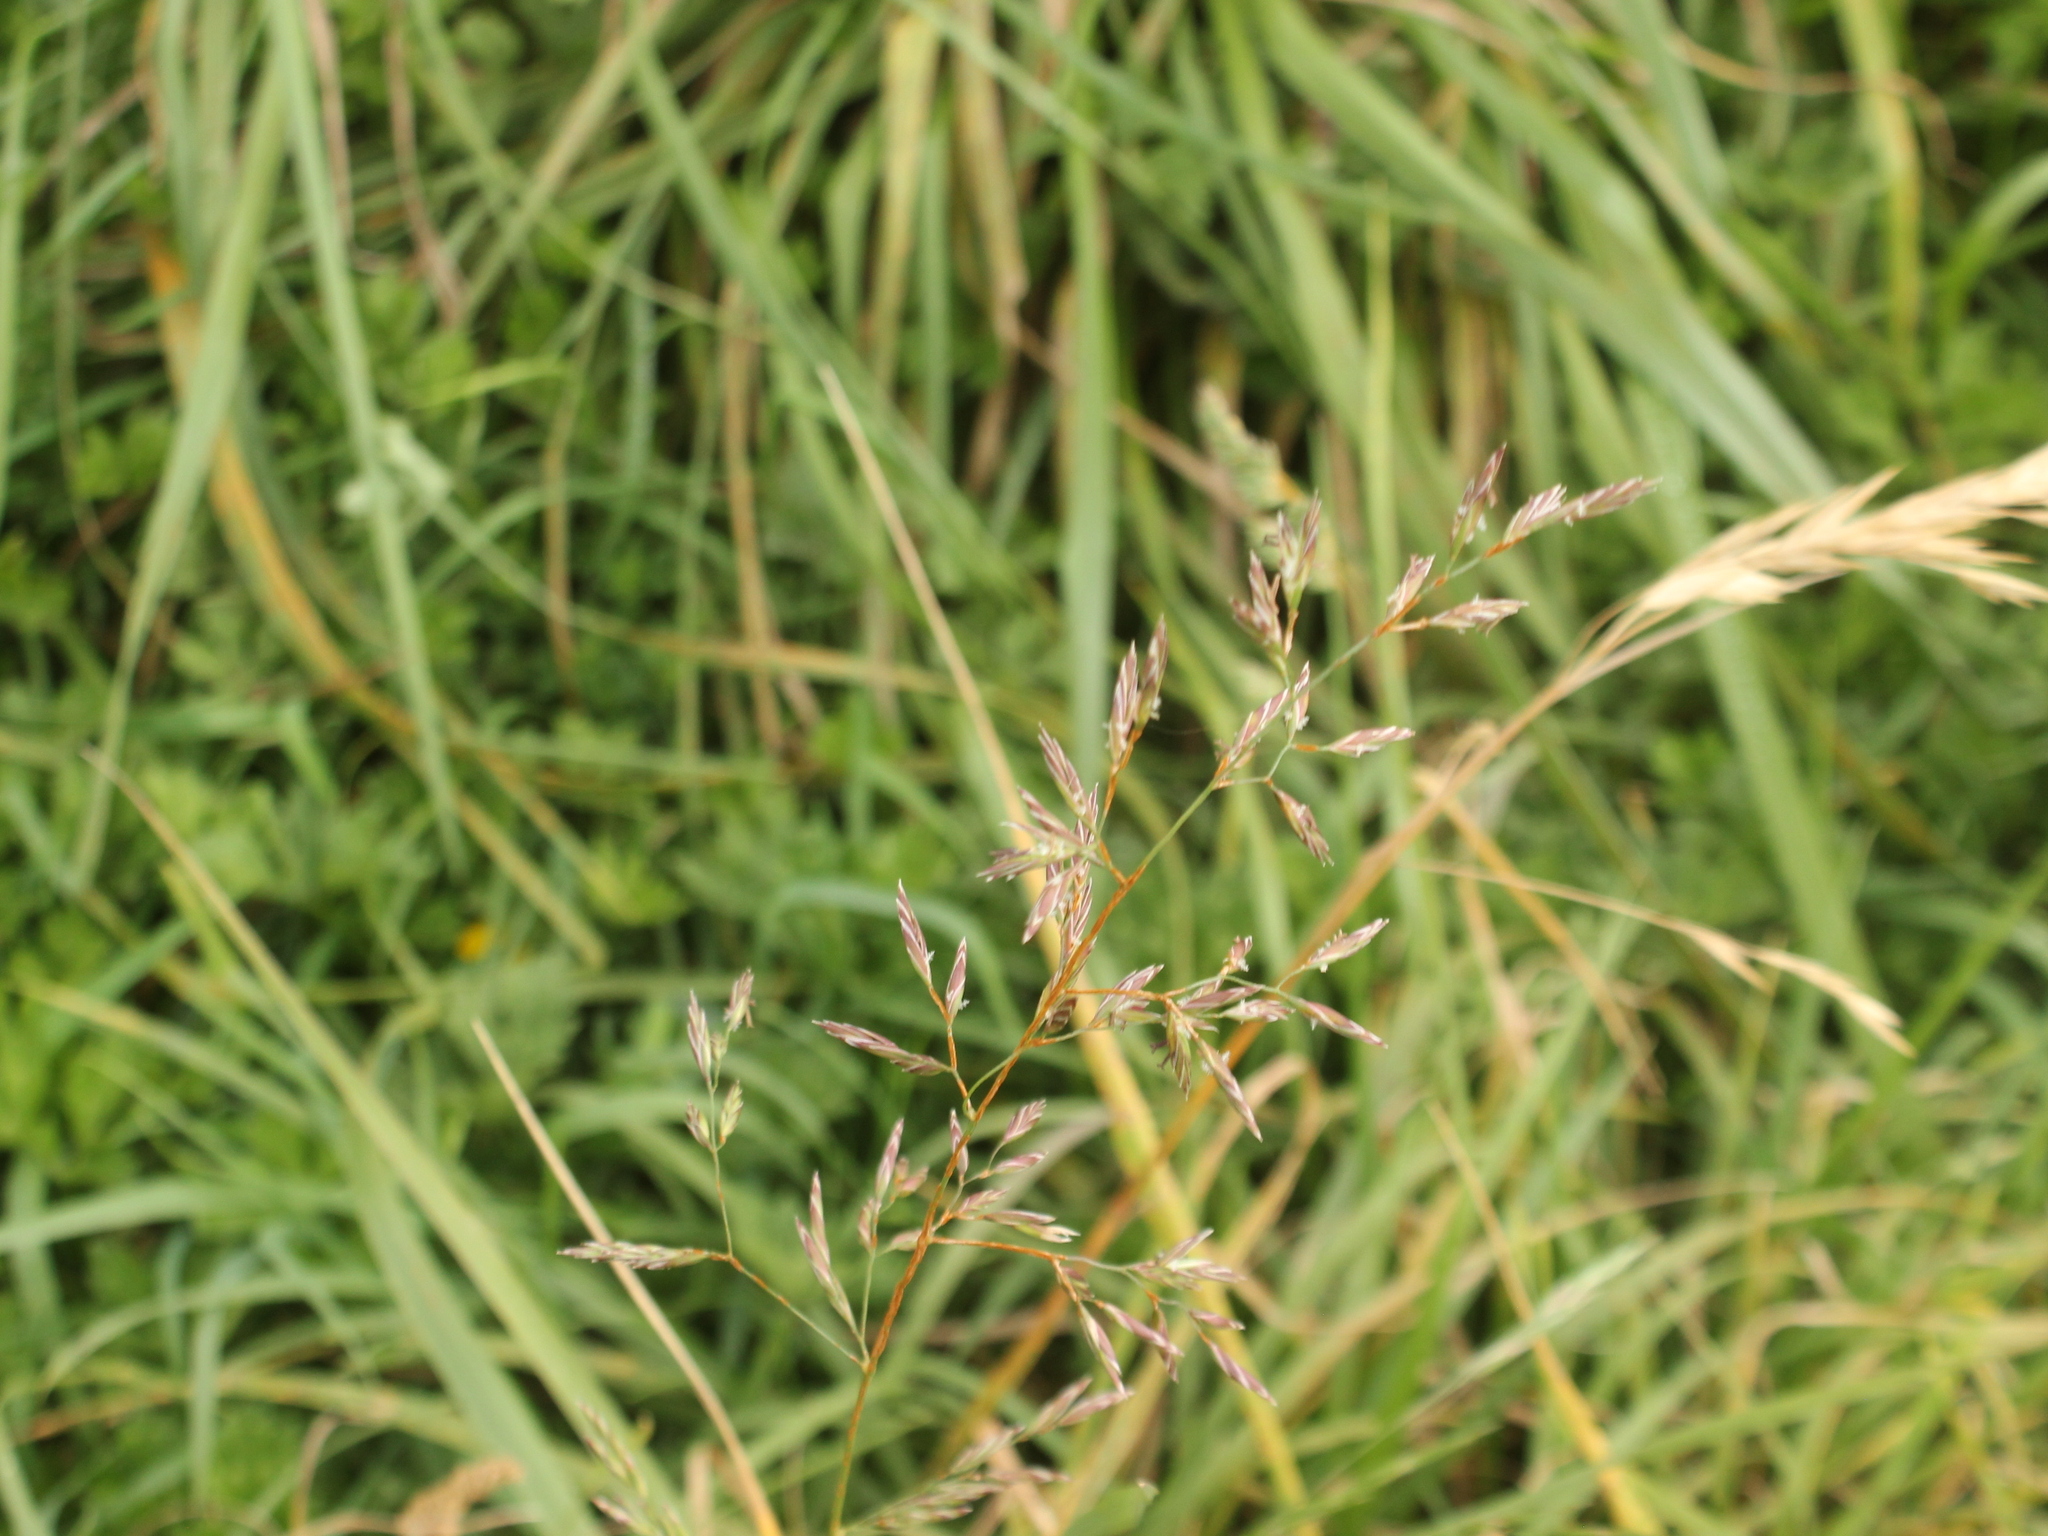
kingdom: Plantae
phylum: Tracheophyta
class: Liliopsida
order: Poales
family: Poaceae
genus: Lolium
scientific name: Lolium arundinaceum
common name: Reed fescue
